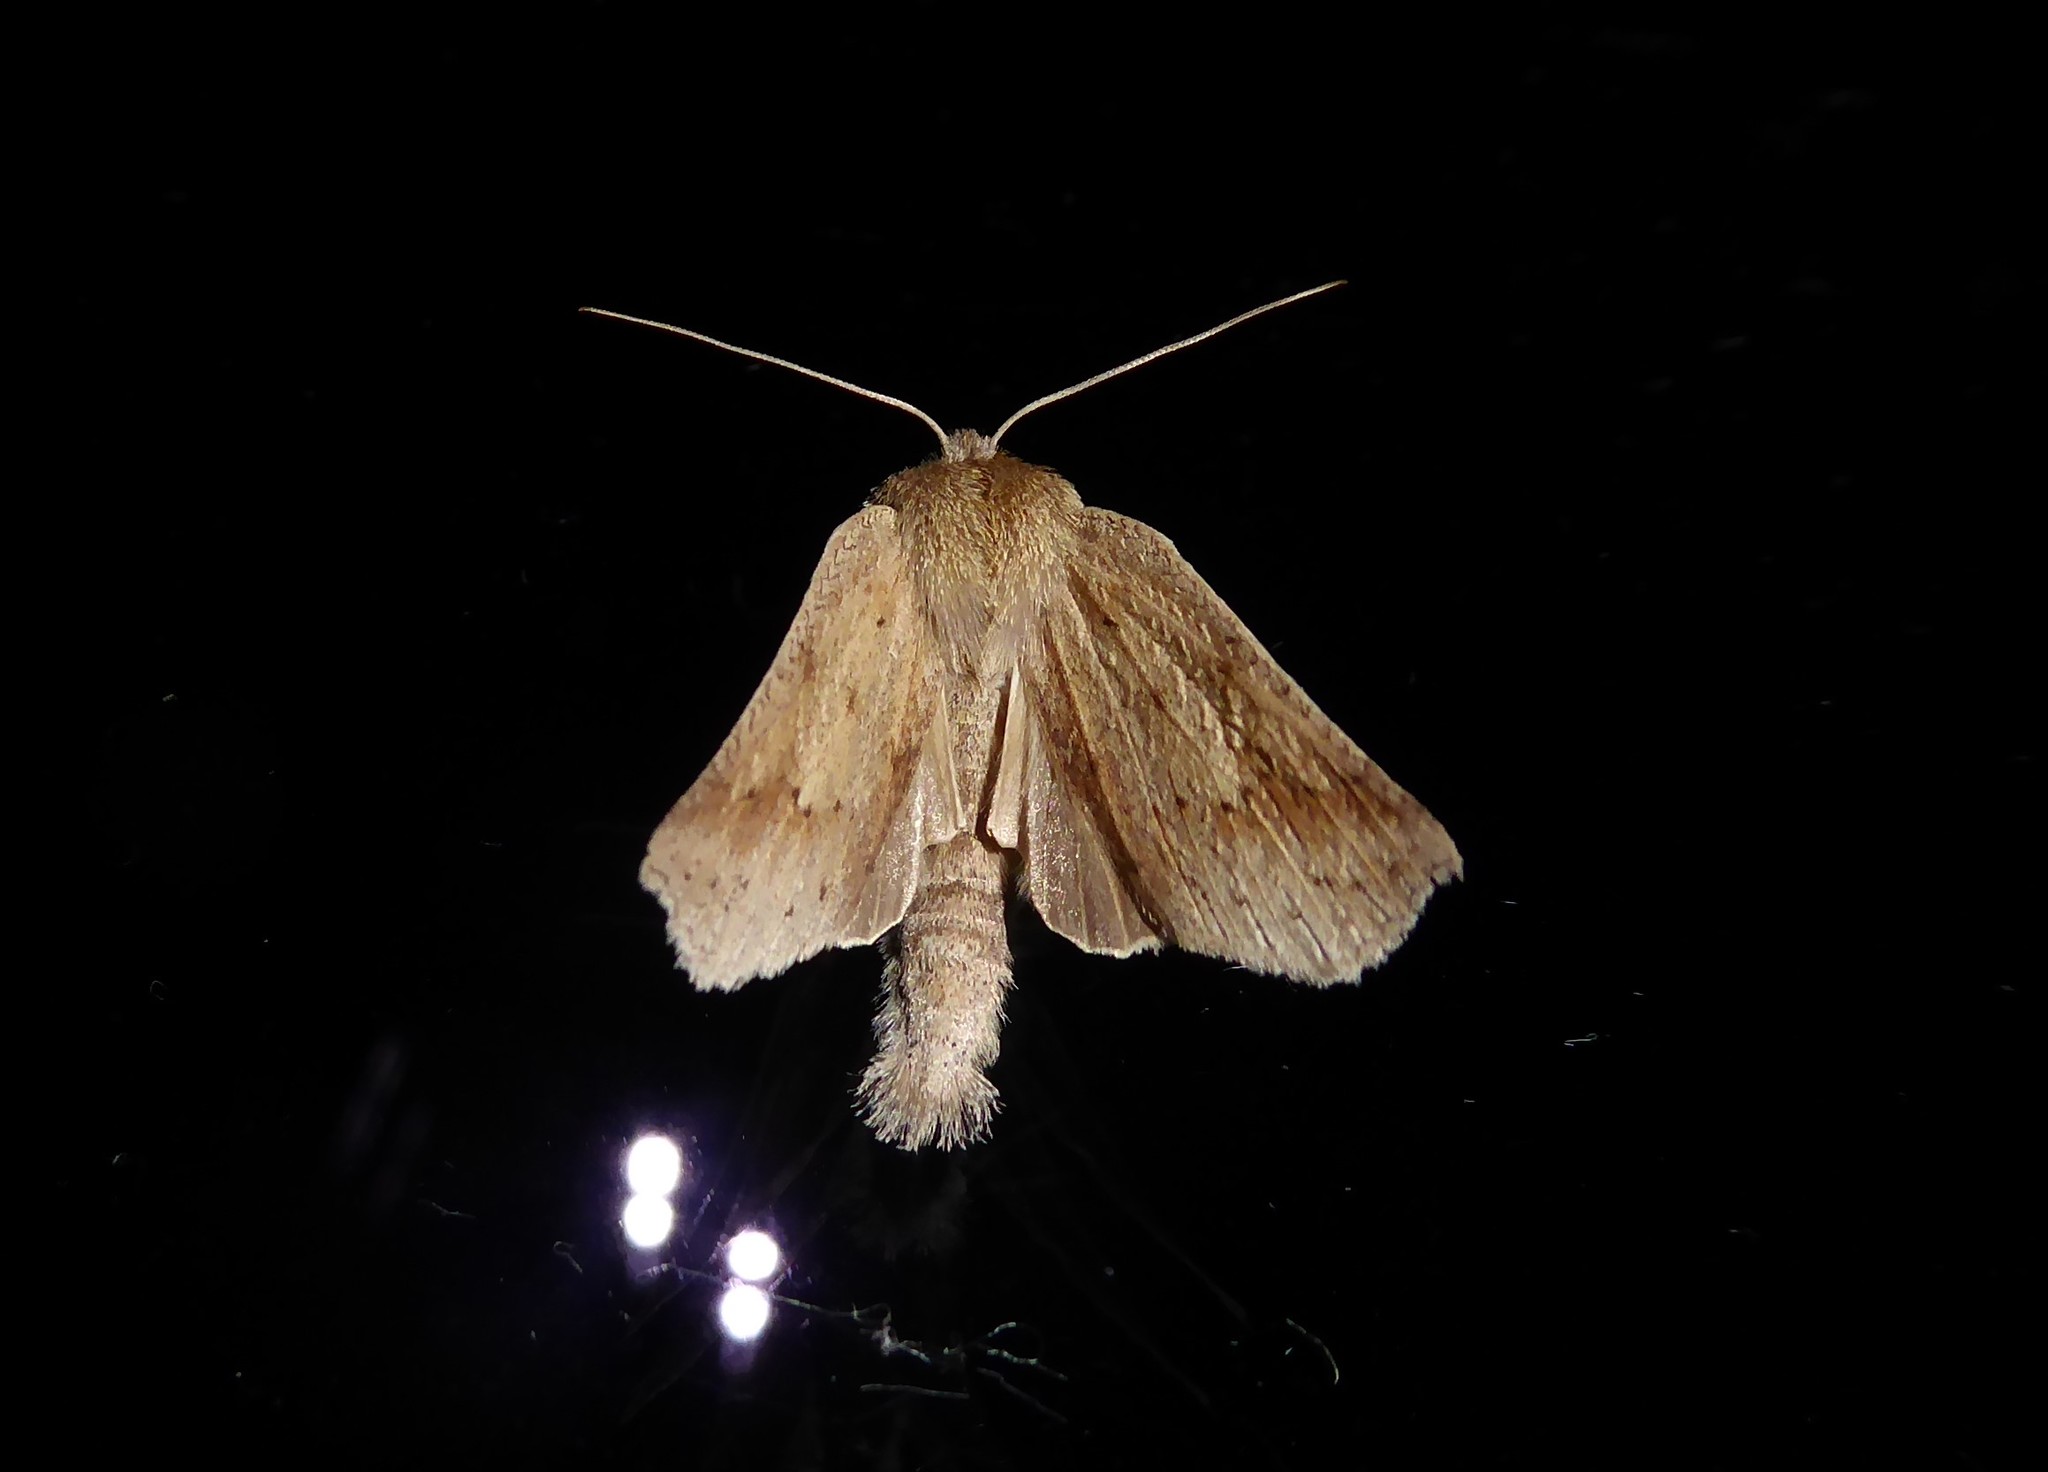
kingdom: Animalia
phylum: Arthropoda
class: Insecta
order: Lepidoptera
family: Geometridae
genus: Declana
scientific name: Declana leptomera
